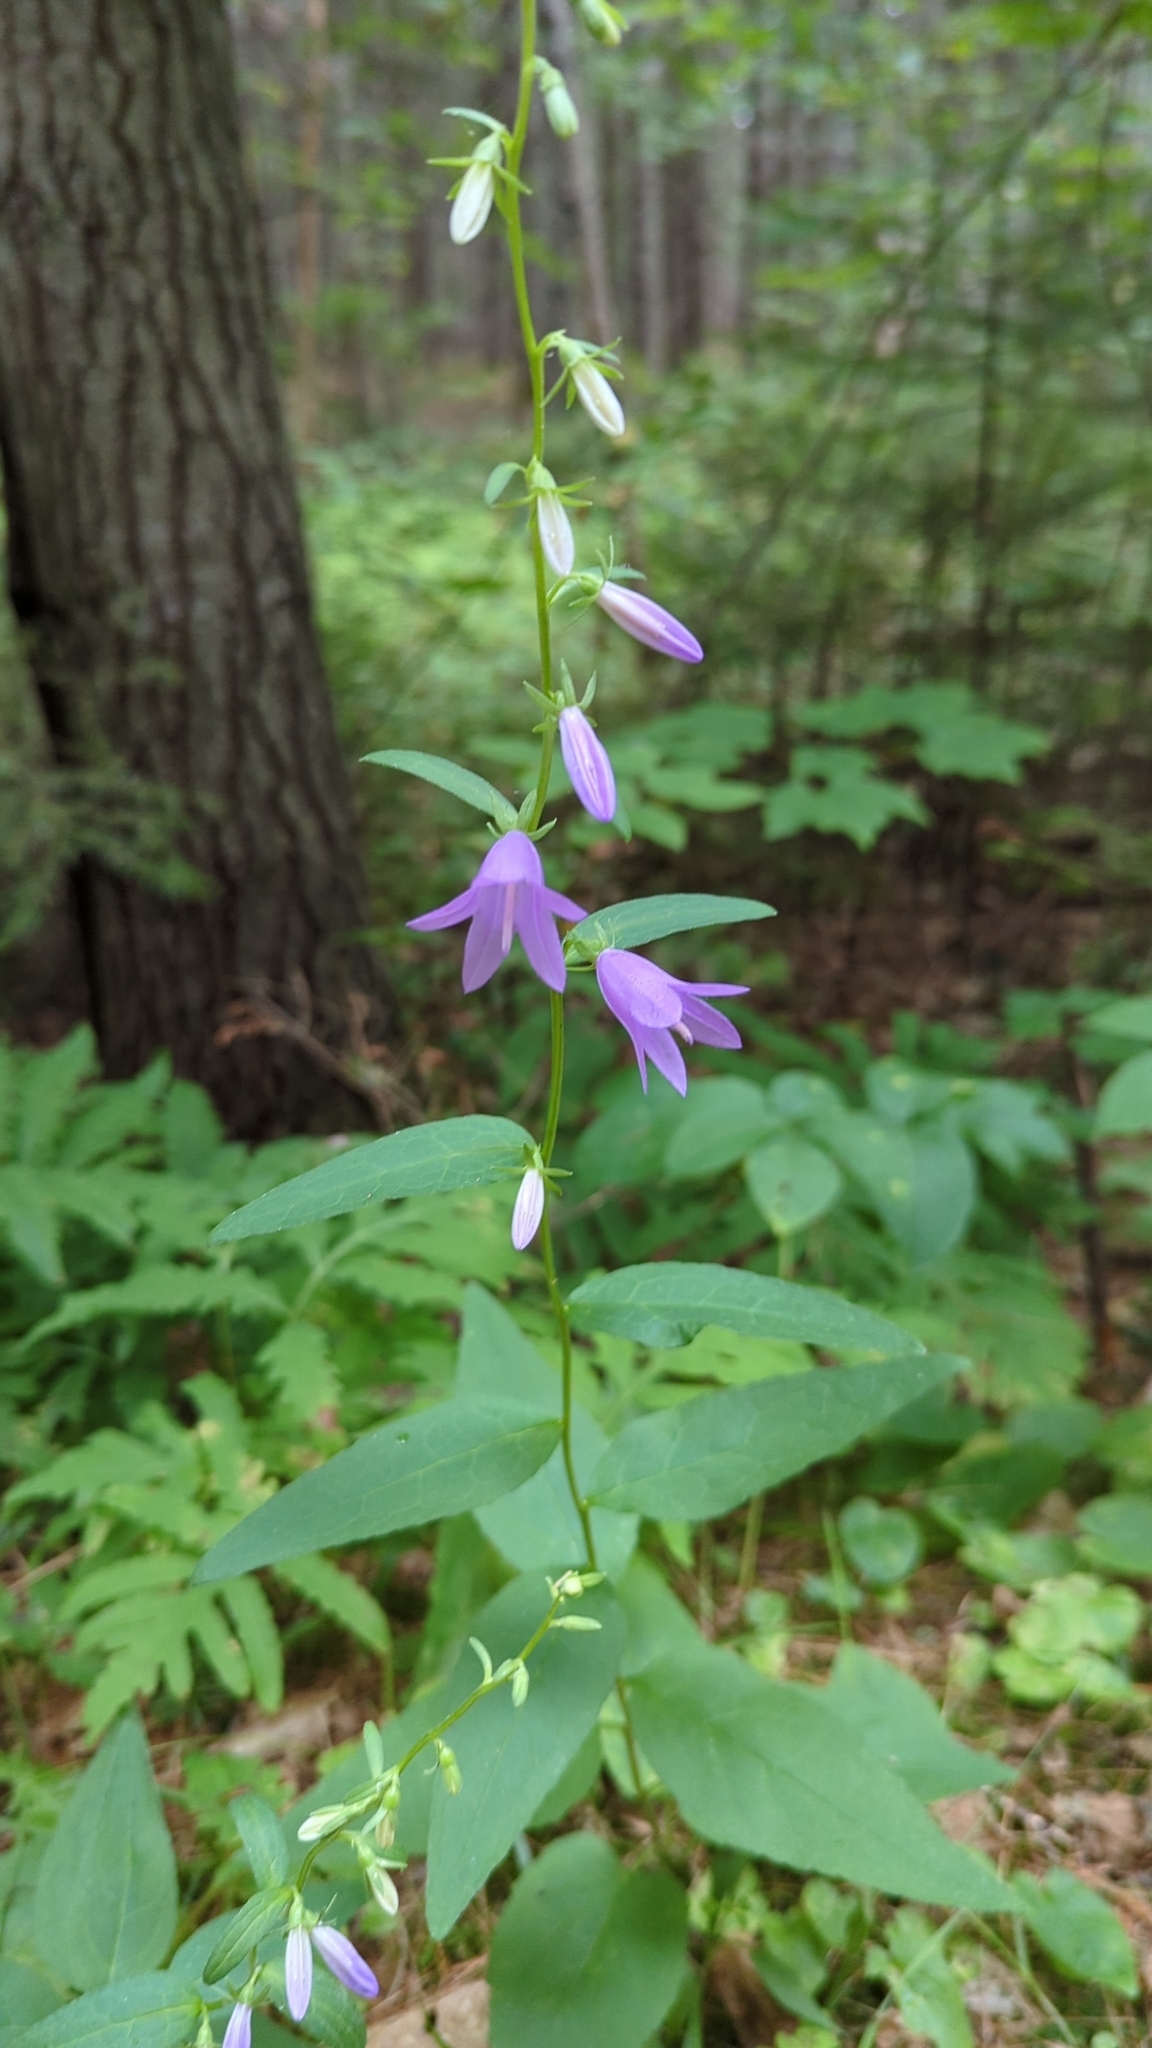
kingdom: Plantae
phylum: Tracheophyta
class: Magnoliopsida
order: Asterales
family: Campanulaceae
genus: Campanula
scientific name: Campanula rapunculoides
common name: Creeping bellflower
